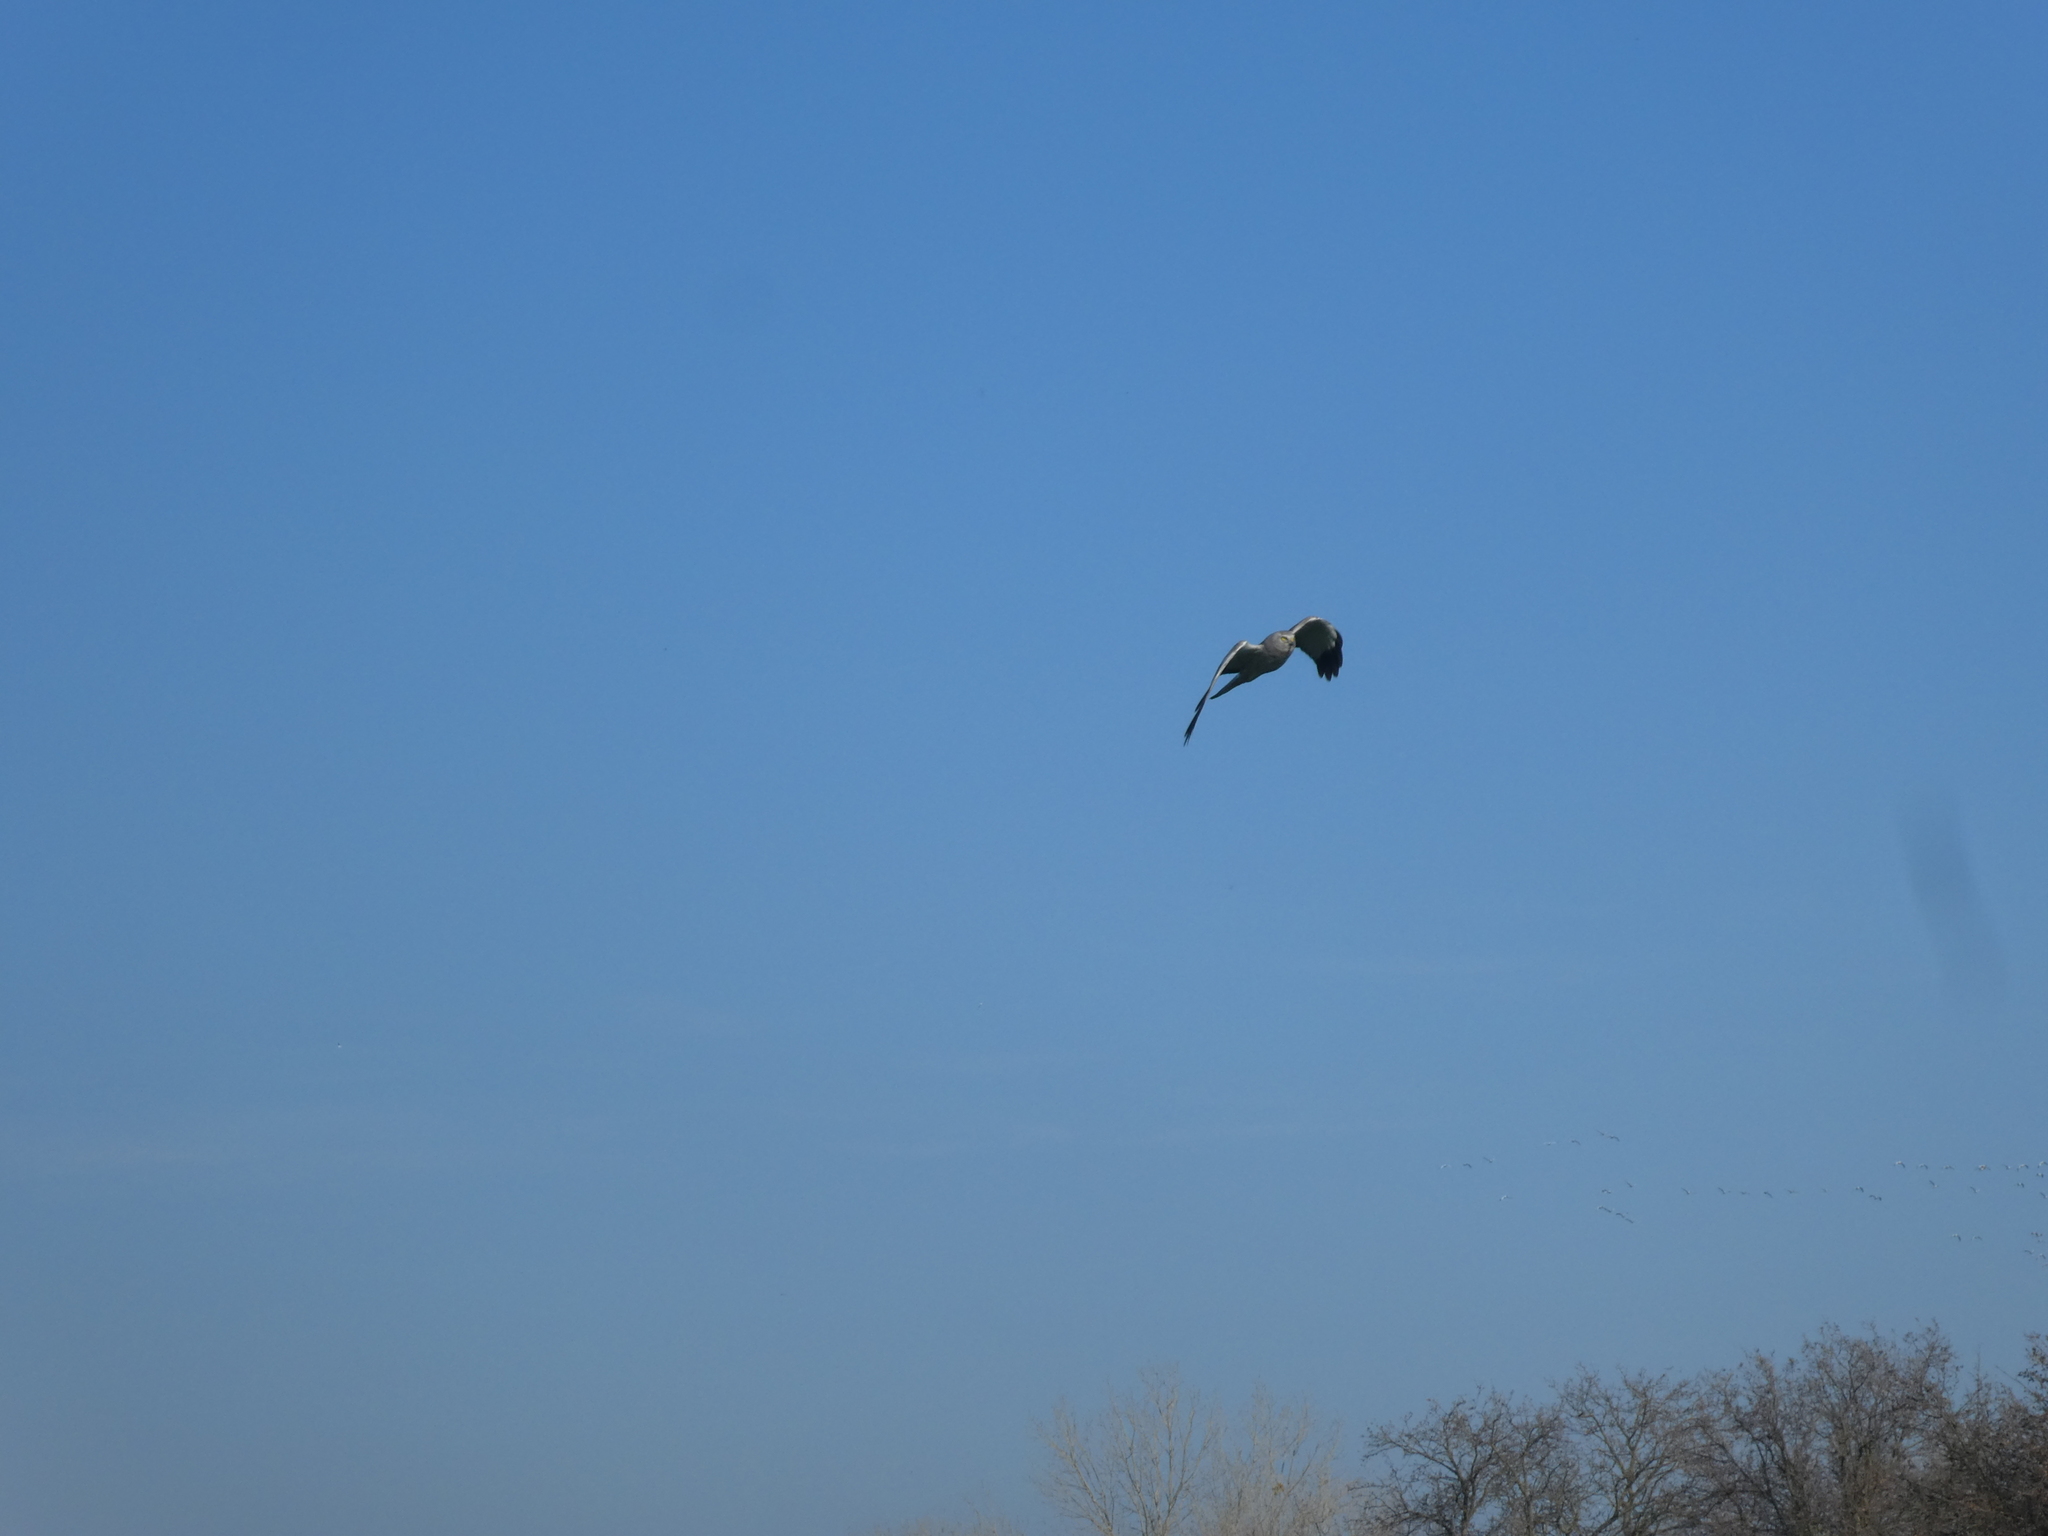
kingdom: Animalia
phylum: Chordata
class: Aves
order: Accipitriformes
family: Accipitridae
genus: Circus
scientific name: Circus cyaneus
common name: Hen harrier
